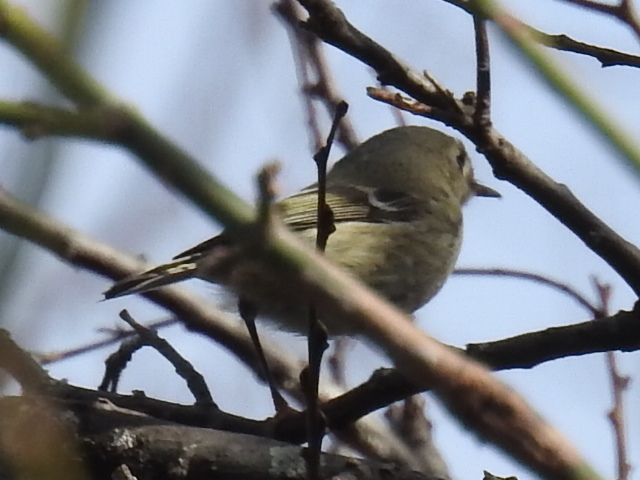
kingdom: Animalia
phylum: Chordata
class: Aves
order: Passeriformes
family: Regulidae
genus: Regulus
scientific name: Regulus calendula
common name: Ruby-crowned kinglet
